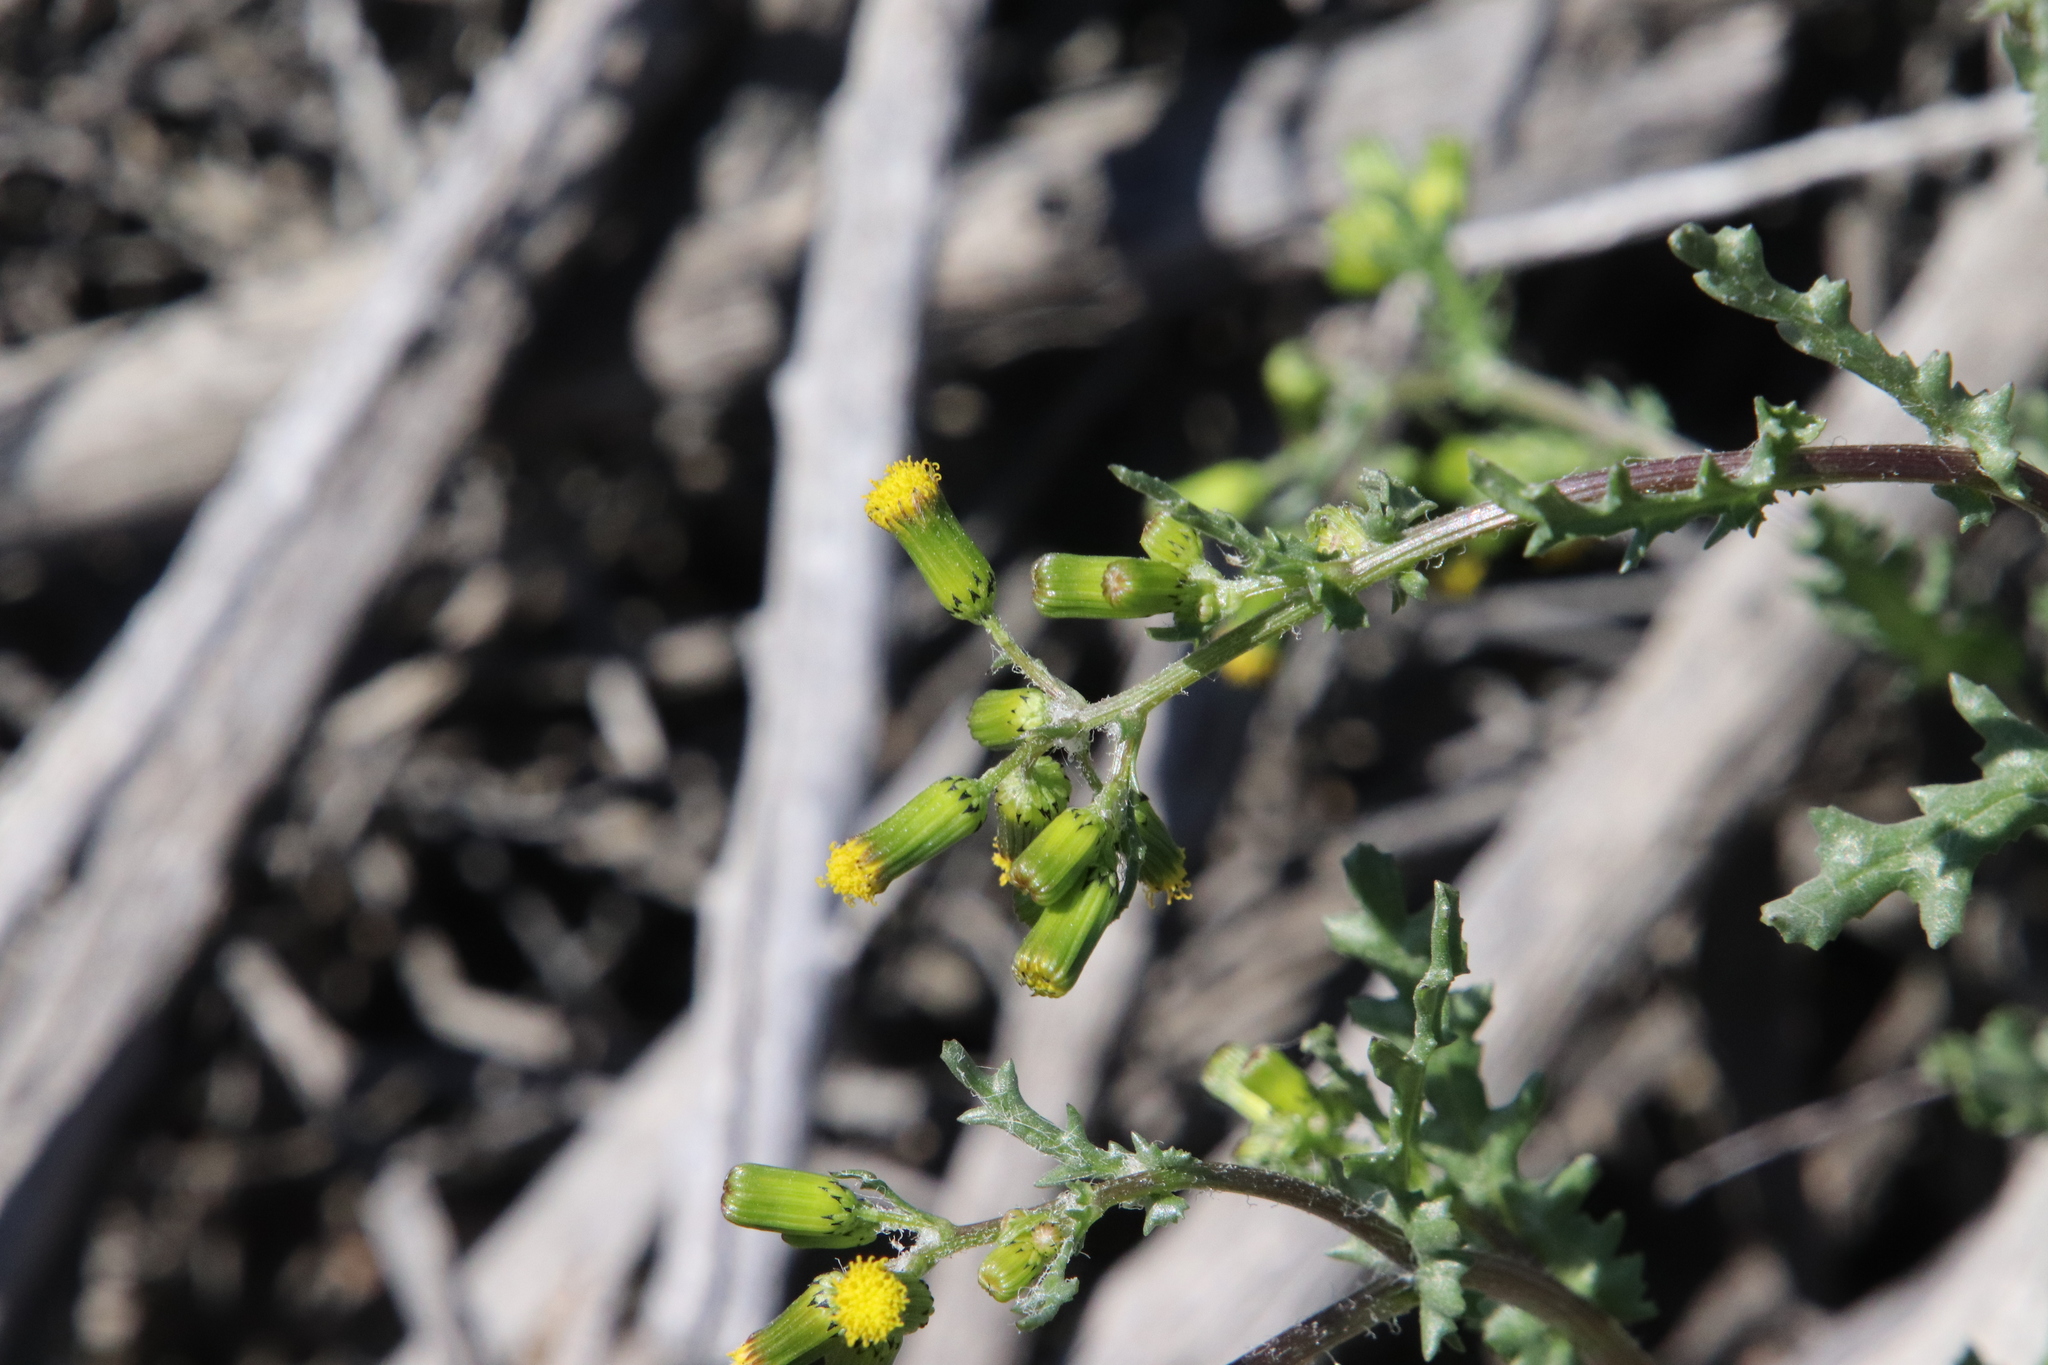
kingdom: Plantae
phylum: Tracheophyta
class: Magnoliopsida
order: Asterales
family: Asteraceae
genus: Senecio
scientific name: Senecio vulgaris
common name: Old-man-in-the-spring
